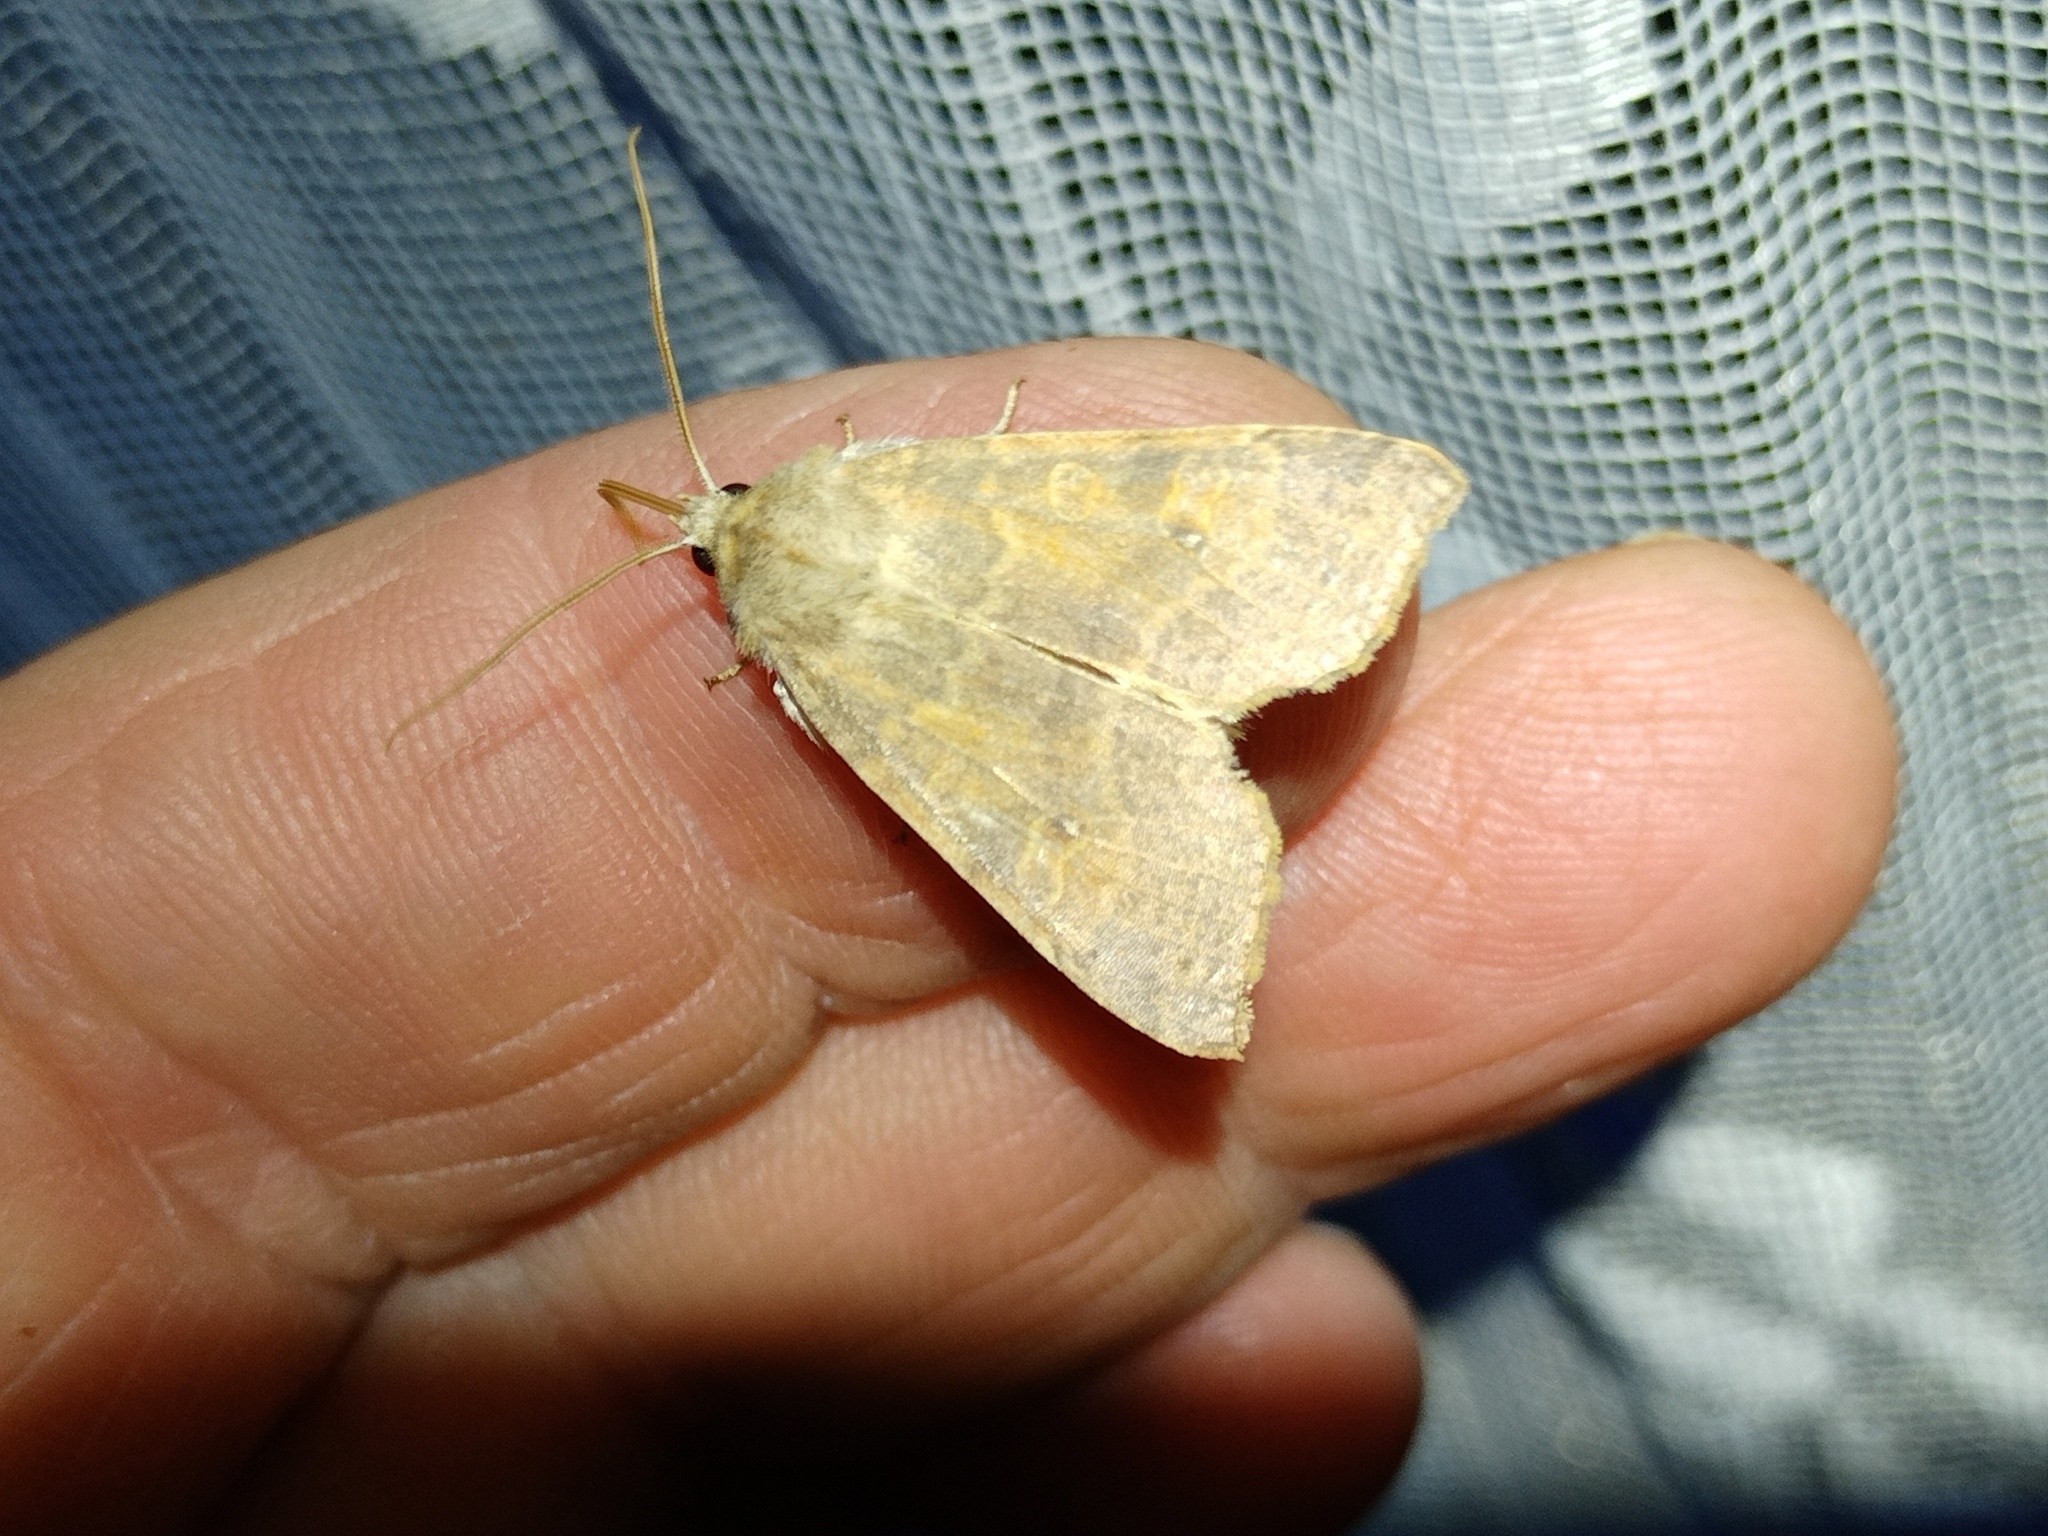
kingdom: Animalia
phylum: Arthropoda
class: Insecta
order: Lepidoptera
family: Noctuidae
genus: Xanthia
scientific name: Xanthia ocellaris
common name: Pale-lemon sallow
